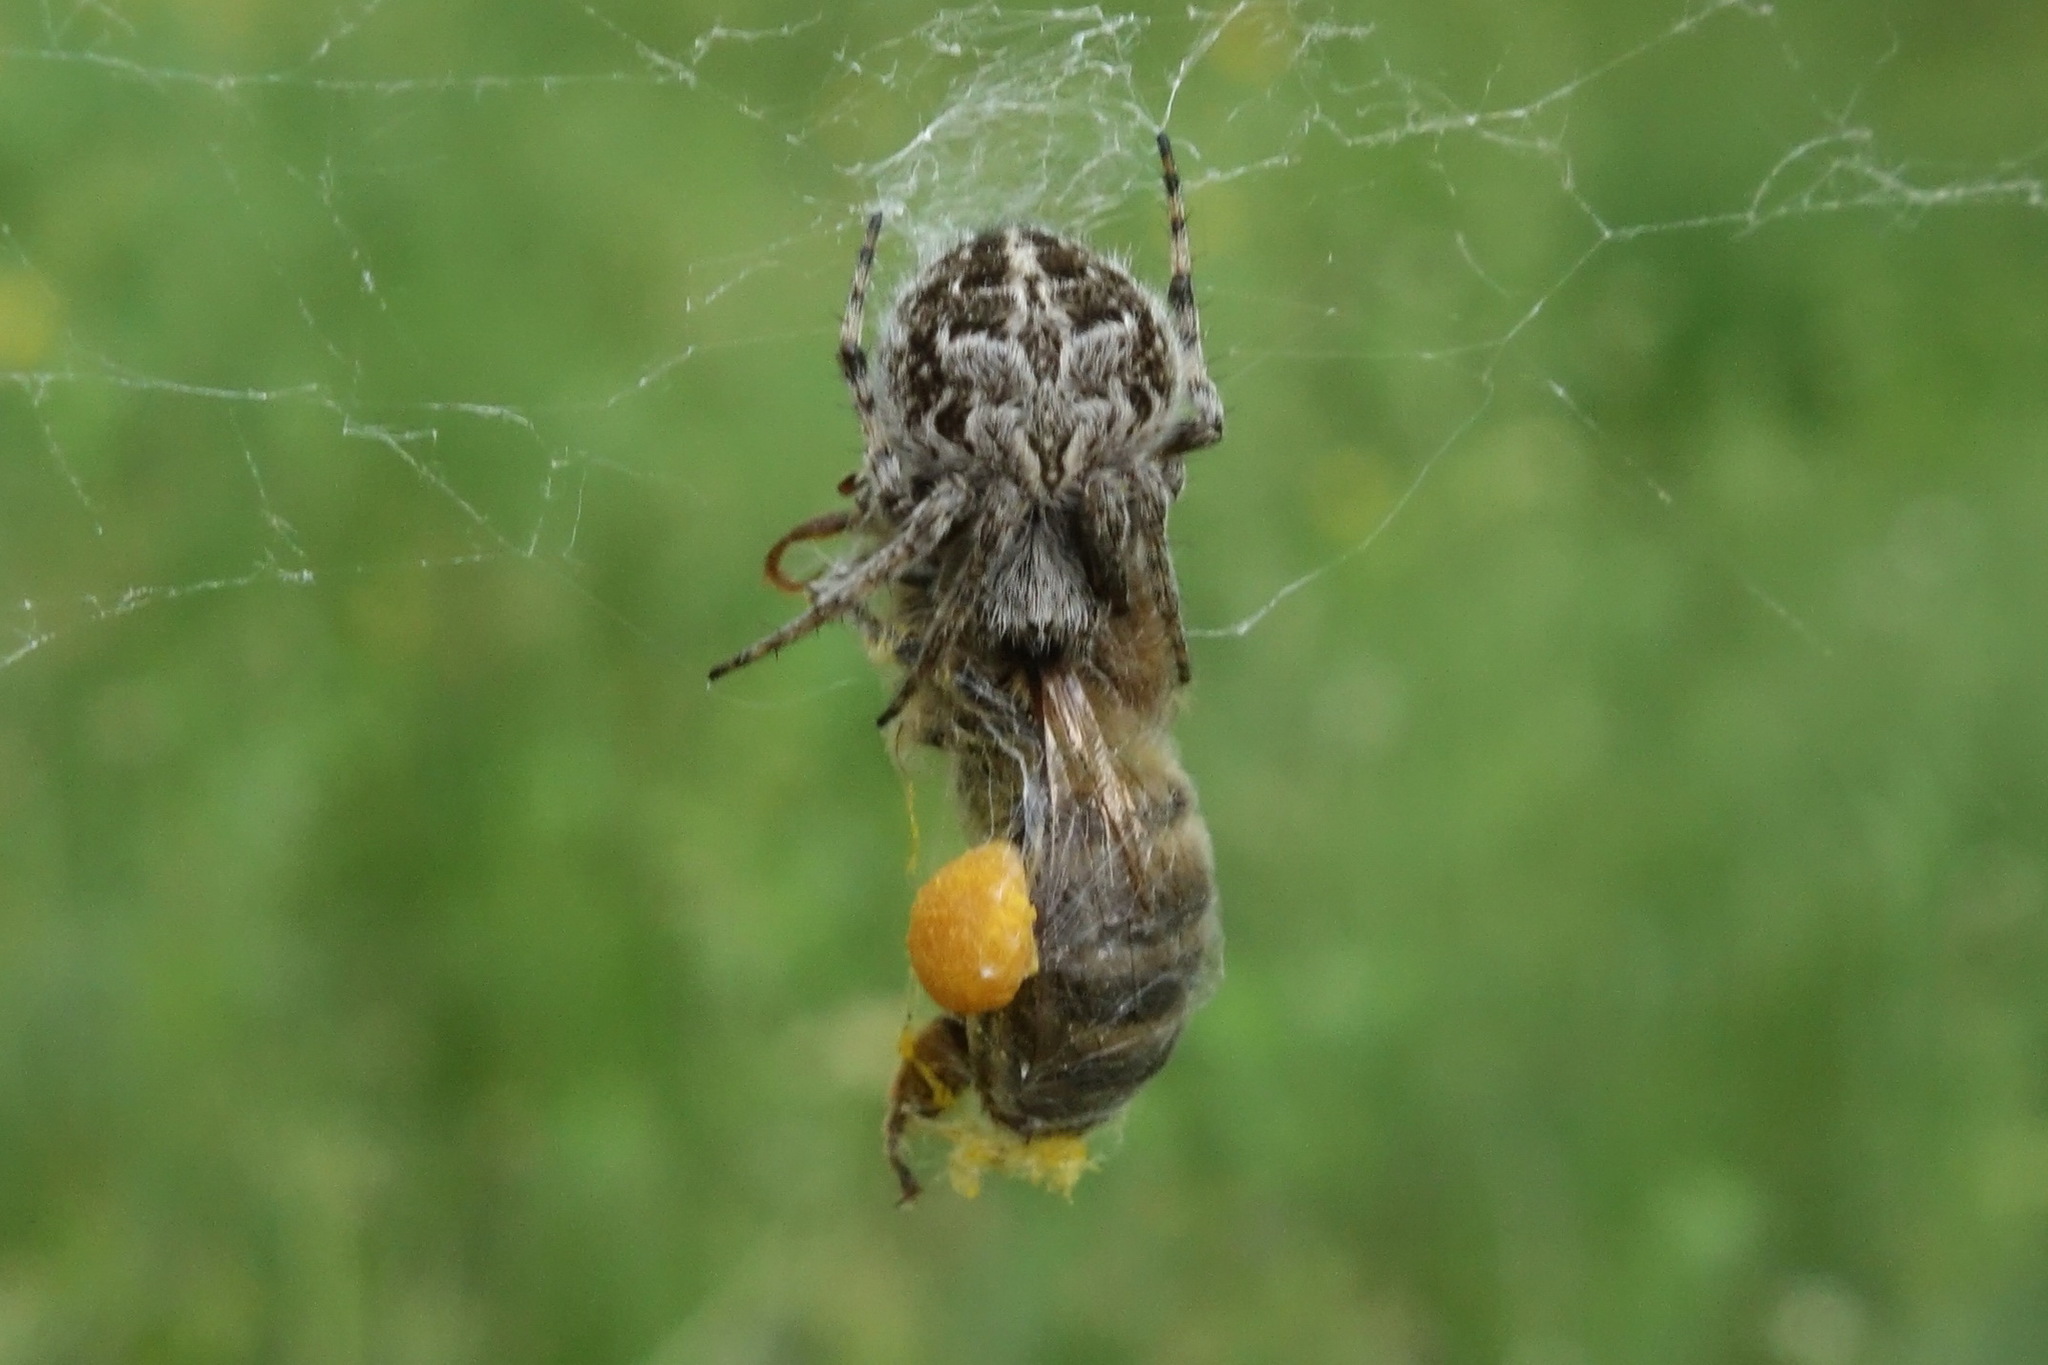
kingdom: Animalia
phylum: Arthropoda
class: Arachnida
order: Araneae
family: Araneidae
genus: Agalenatea
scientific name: Agalenatea redii
